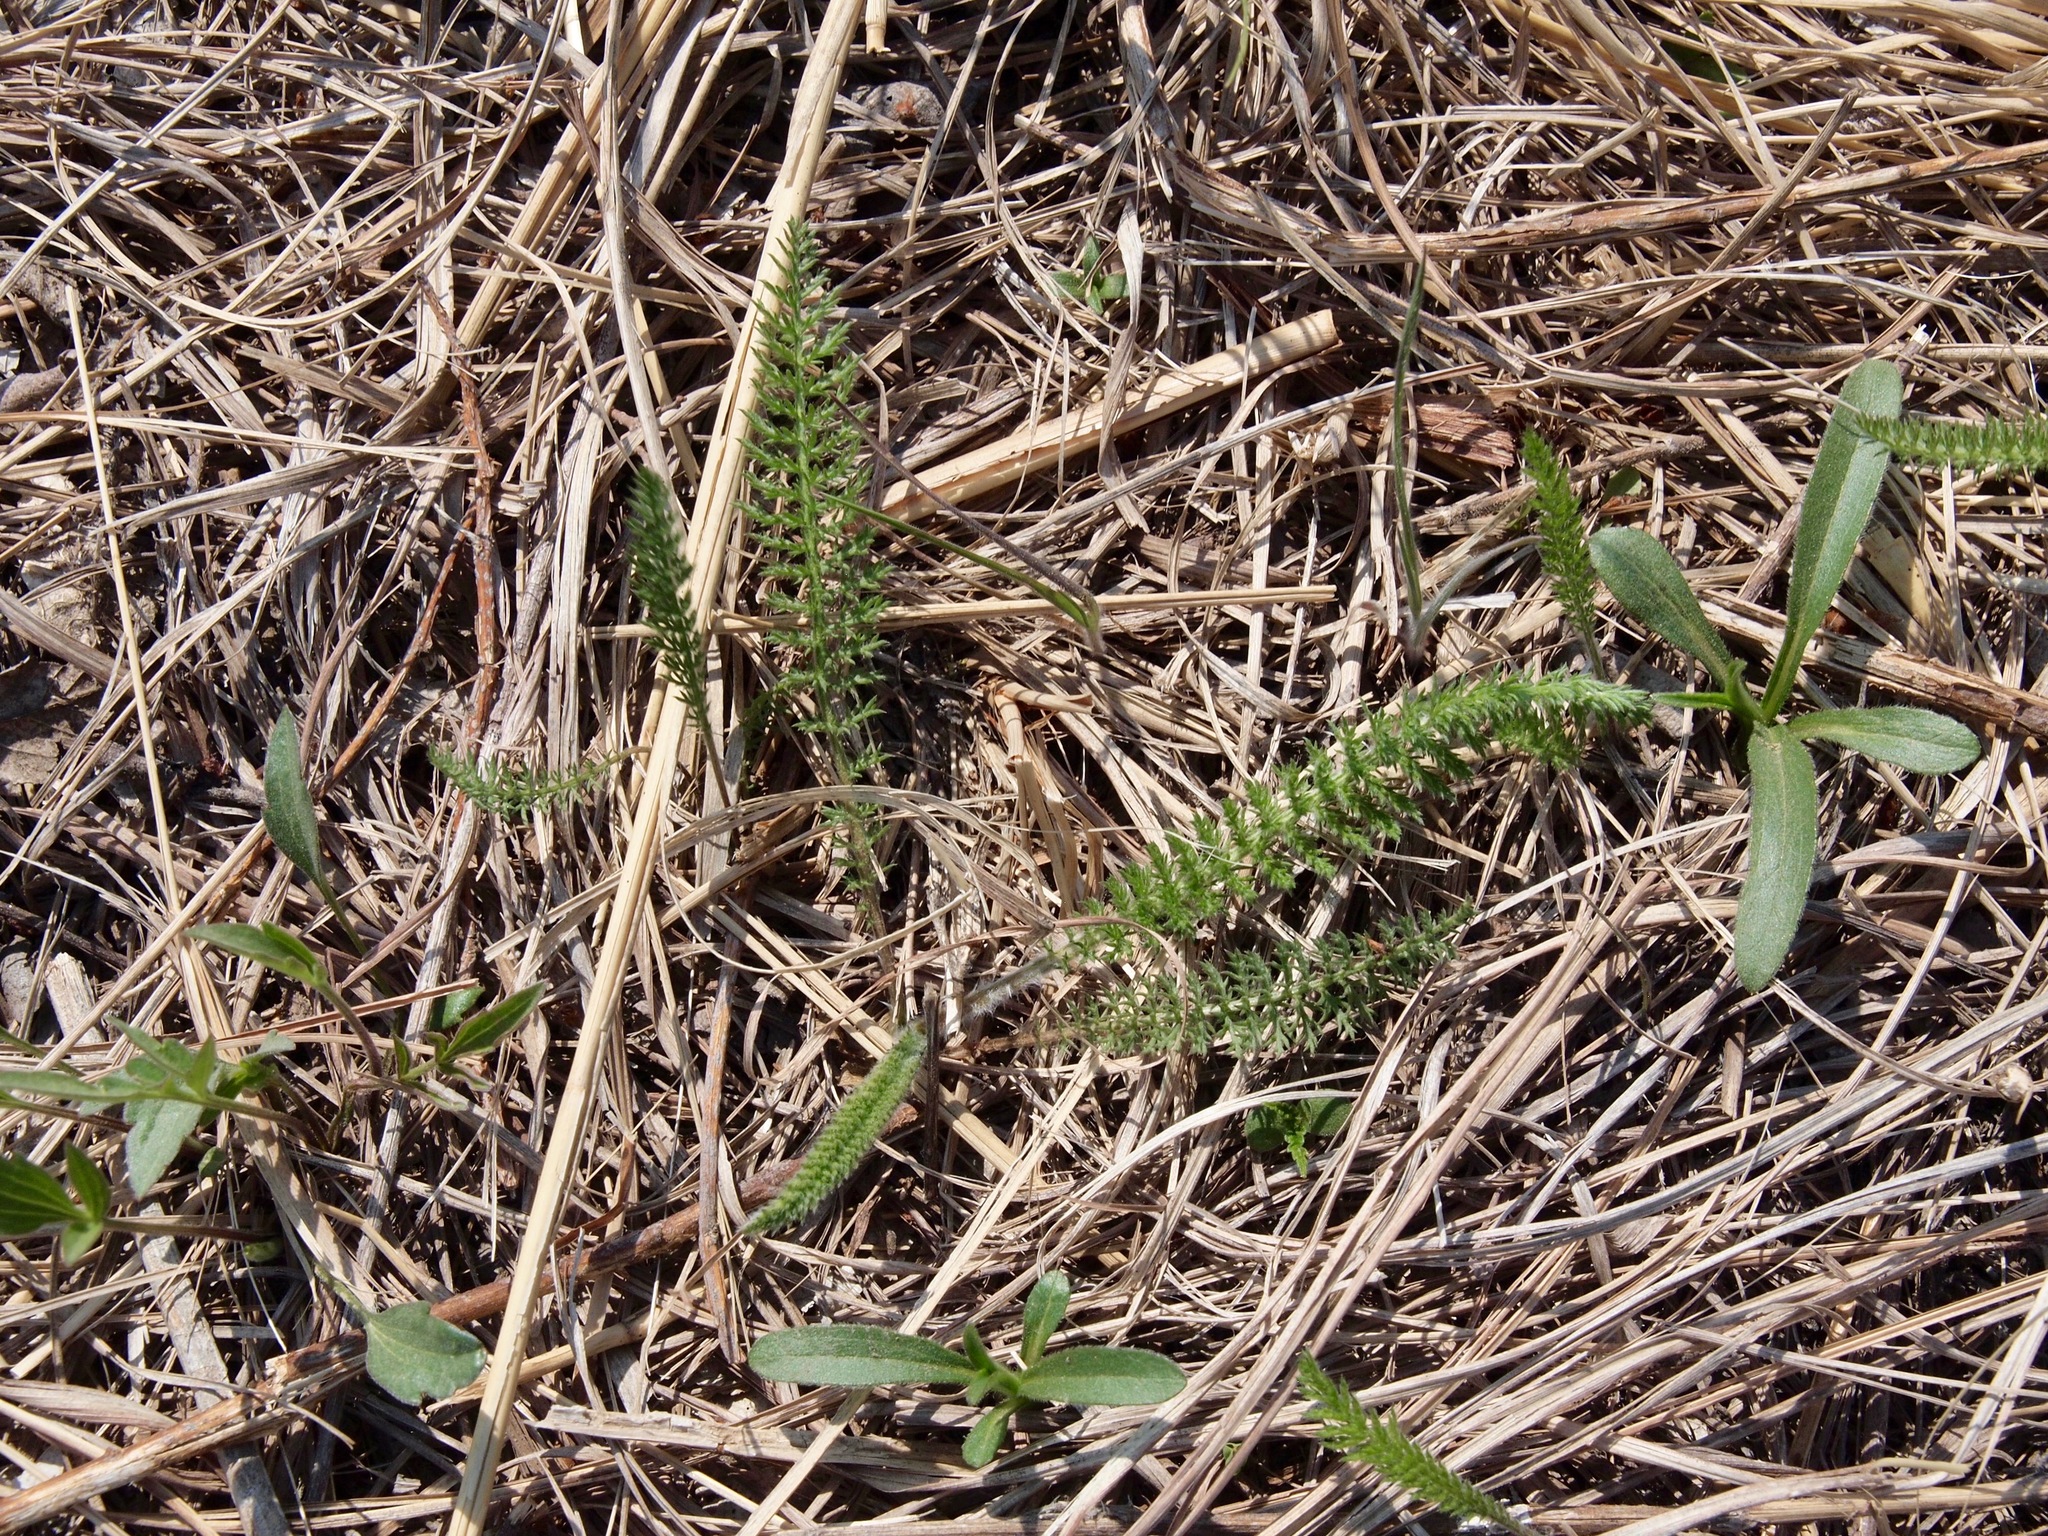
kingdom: Plantae
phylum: Tracheophyta
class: Magnoliopsida
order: Asterales
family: Asteraceae
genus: Achillea
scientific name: Achillea millefolium
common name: Yarrow
